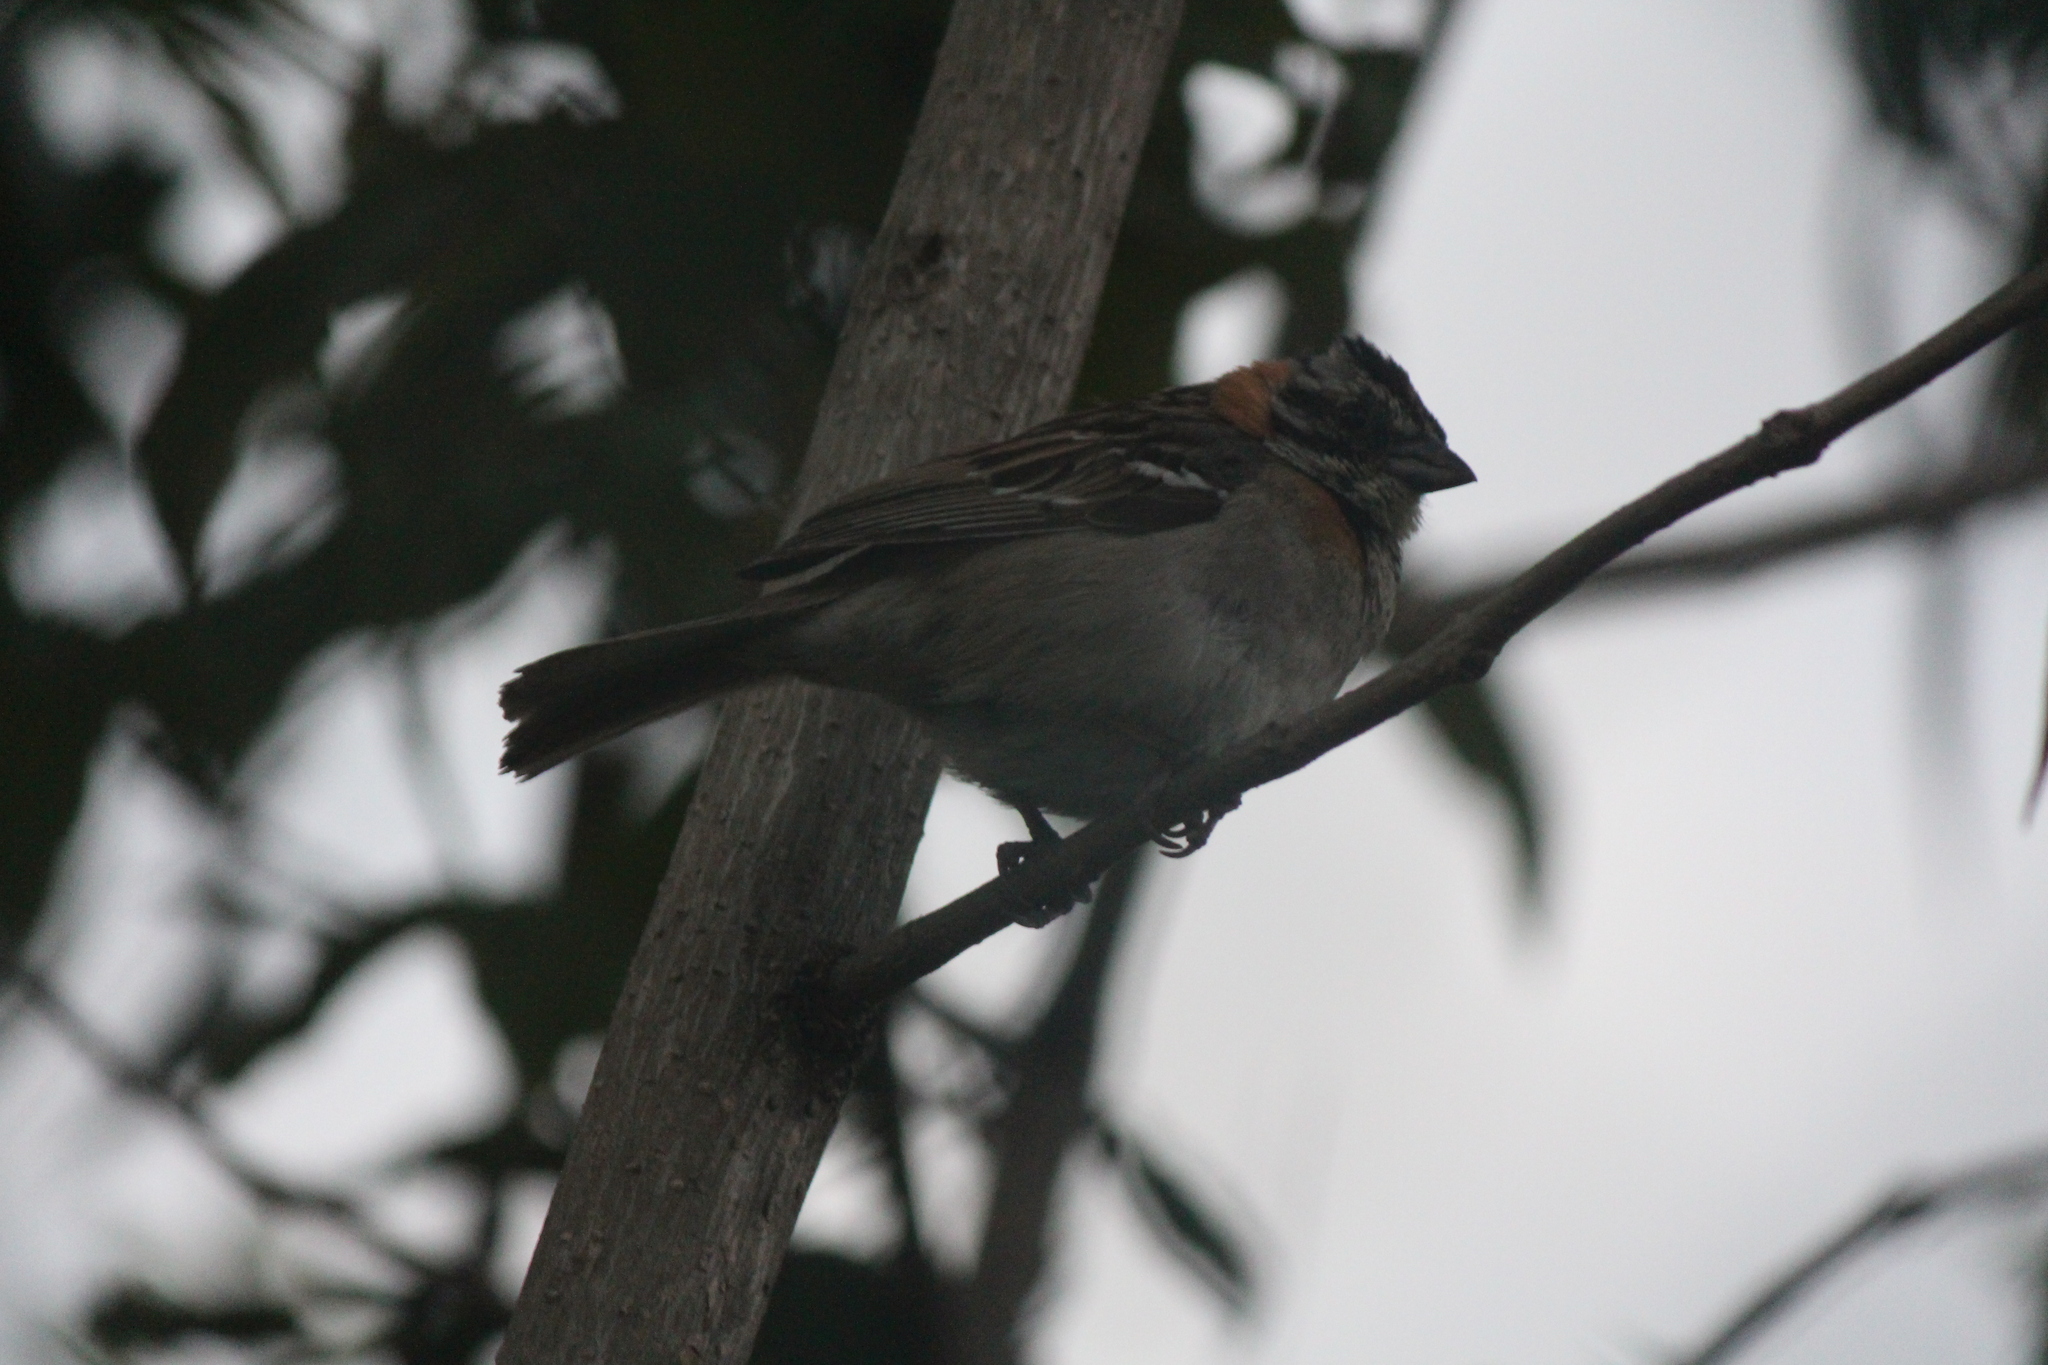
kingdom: Animalia
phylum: Chordata
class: Aves
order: Passeriformes
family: Passerellidae
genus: Zonotrichia
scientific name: Zonotrichia capensis
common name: Rufous-collared sparrow
